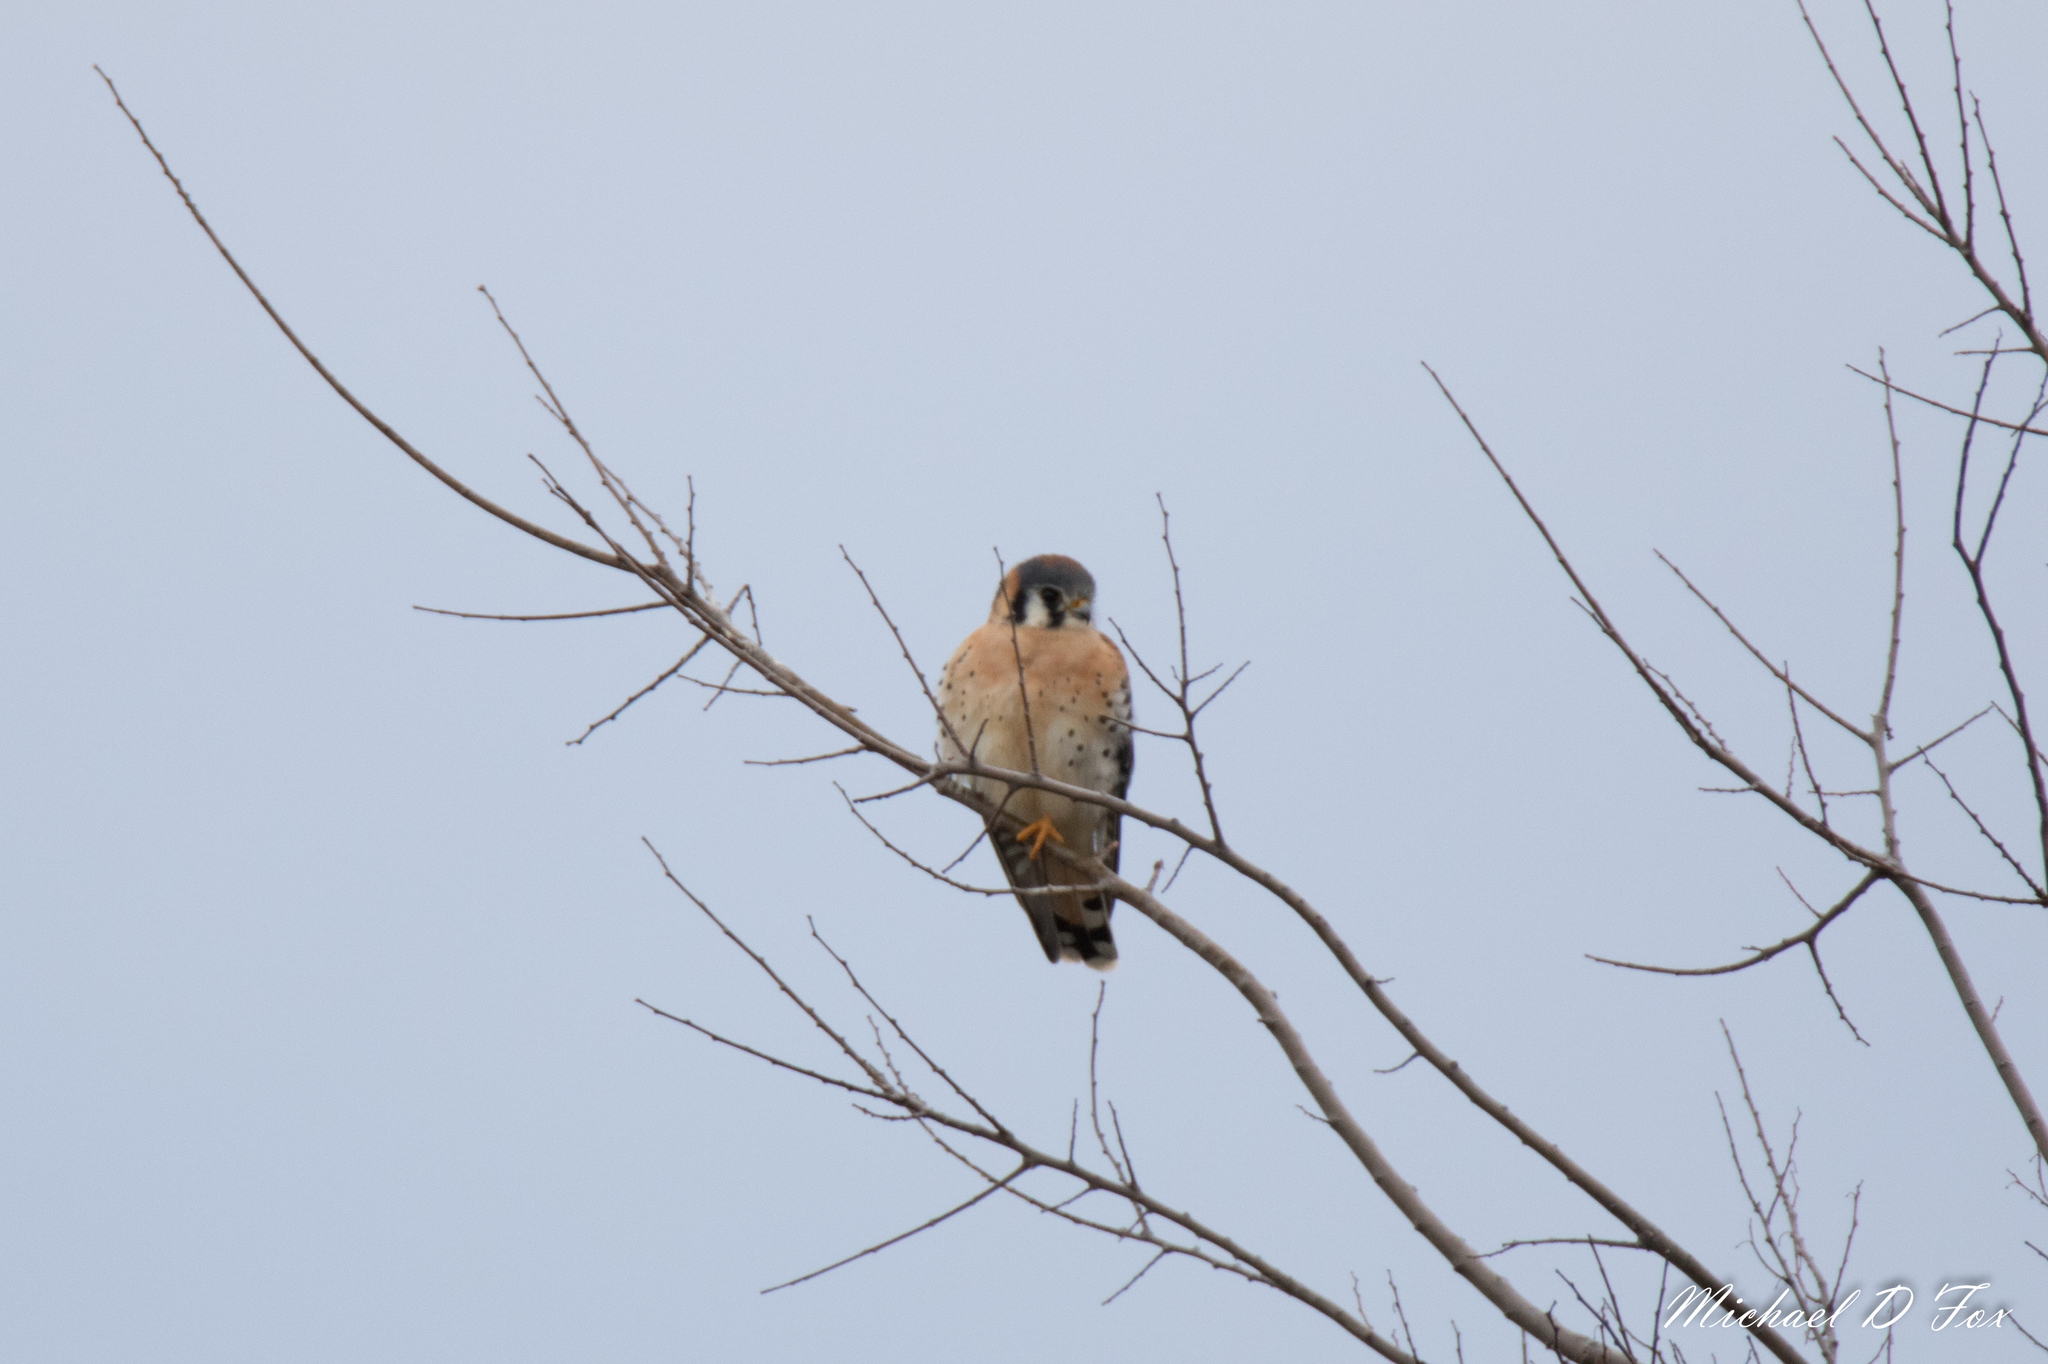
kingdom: Animalia
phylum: Chordata
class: Aves
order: Falconiformes
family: Falconidae
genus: Falco
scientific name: Falco sparverius
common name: American kestrel
